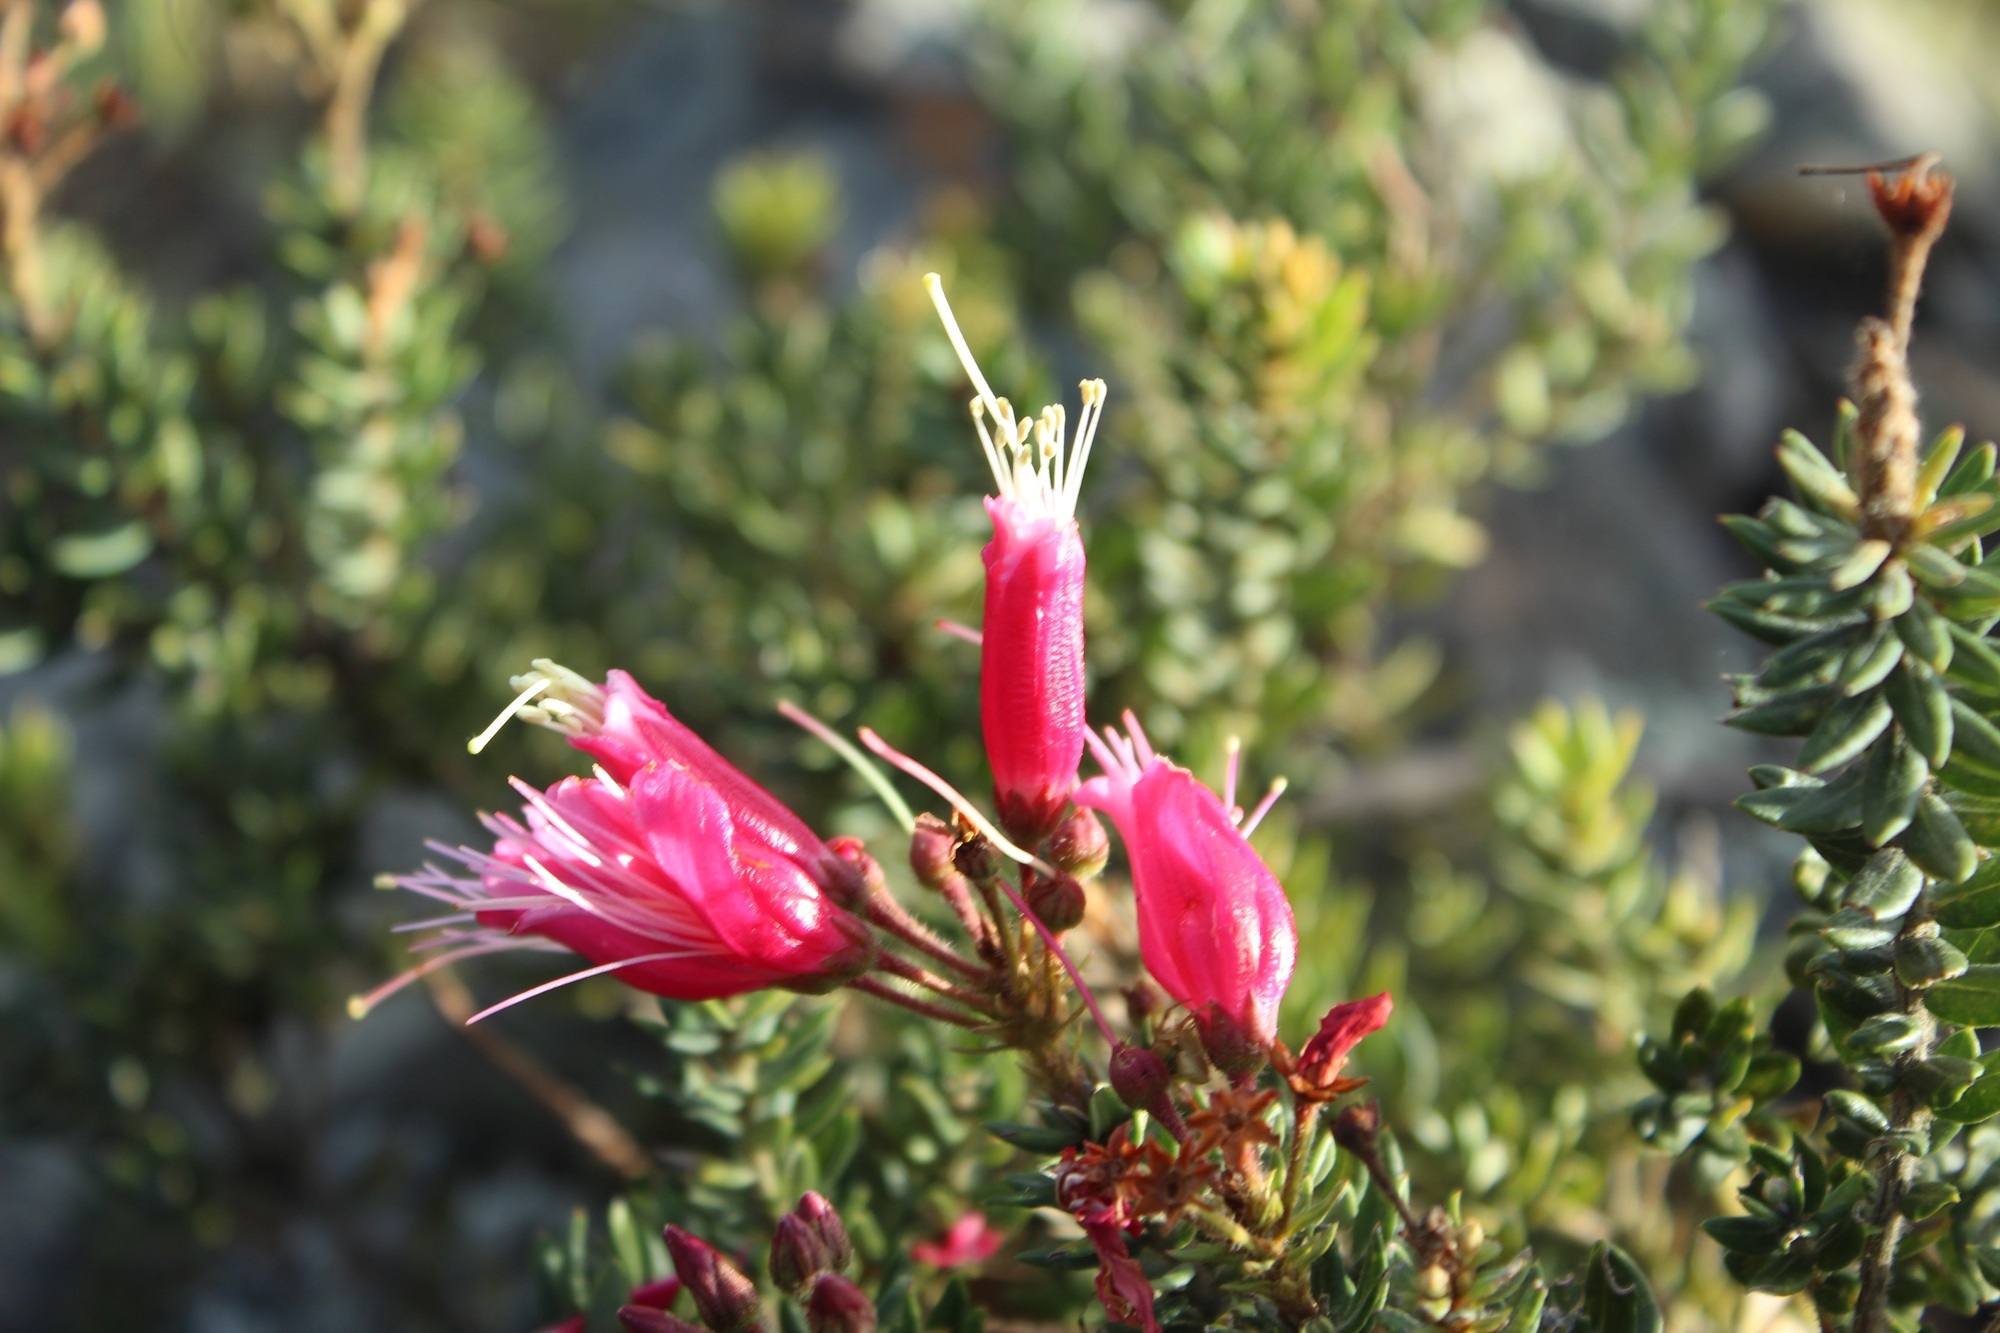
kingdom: Plantae
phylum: Tracheophyta
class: Magnoliopsida
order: Ericales
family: Ericaceae
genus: Bejaria
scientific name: Bejaria resinosa
